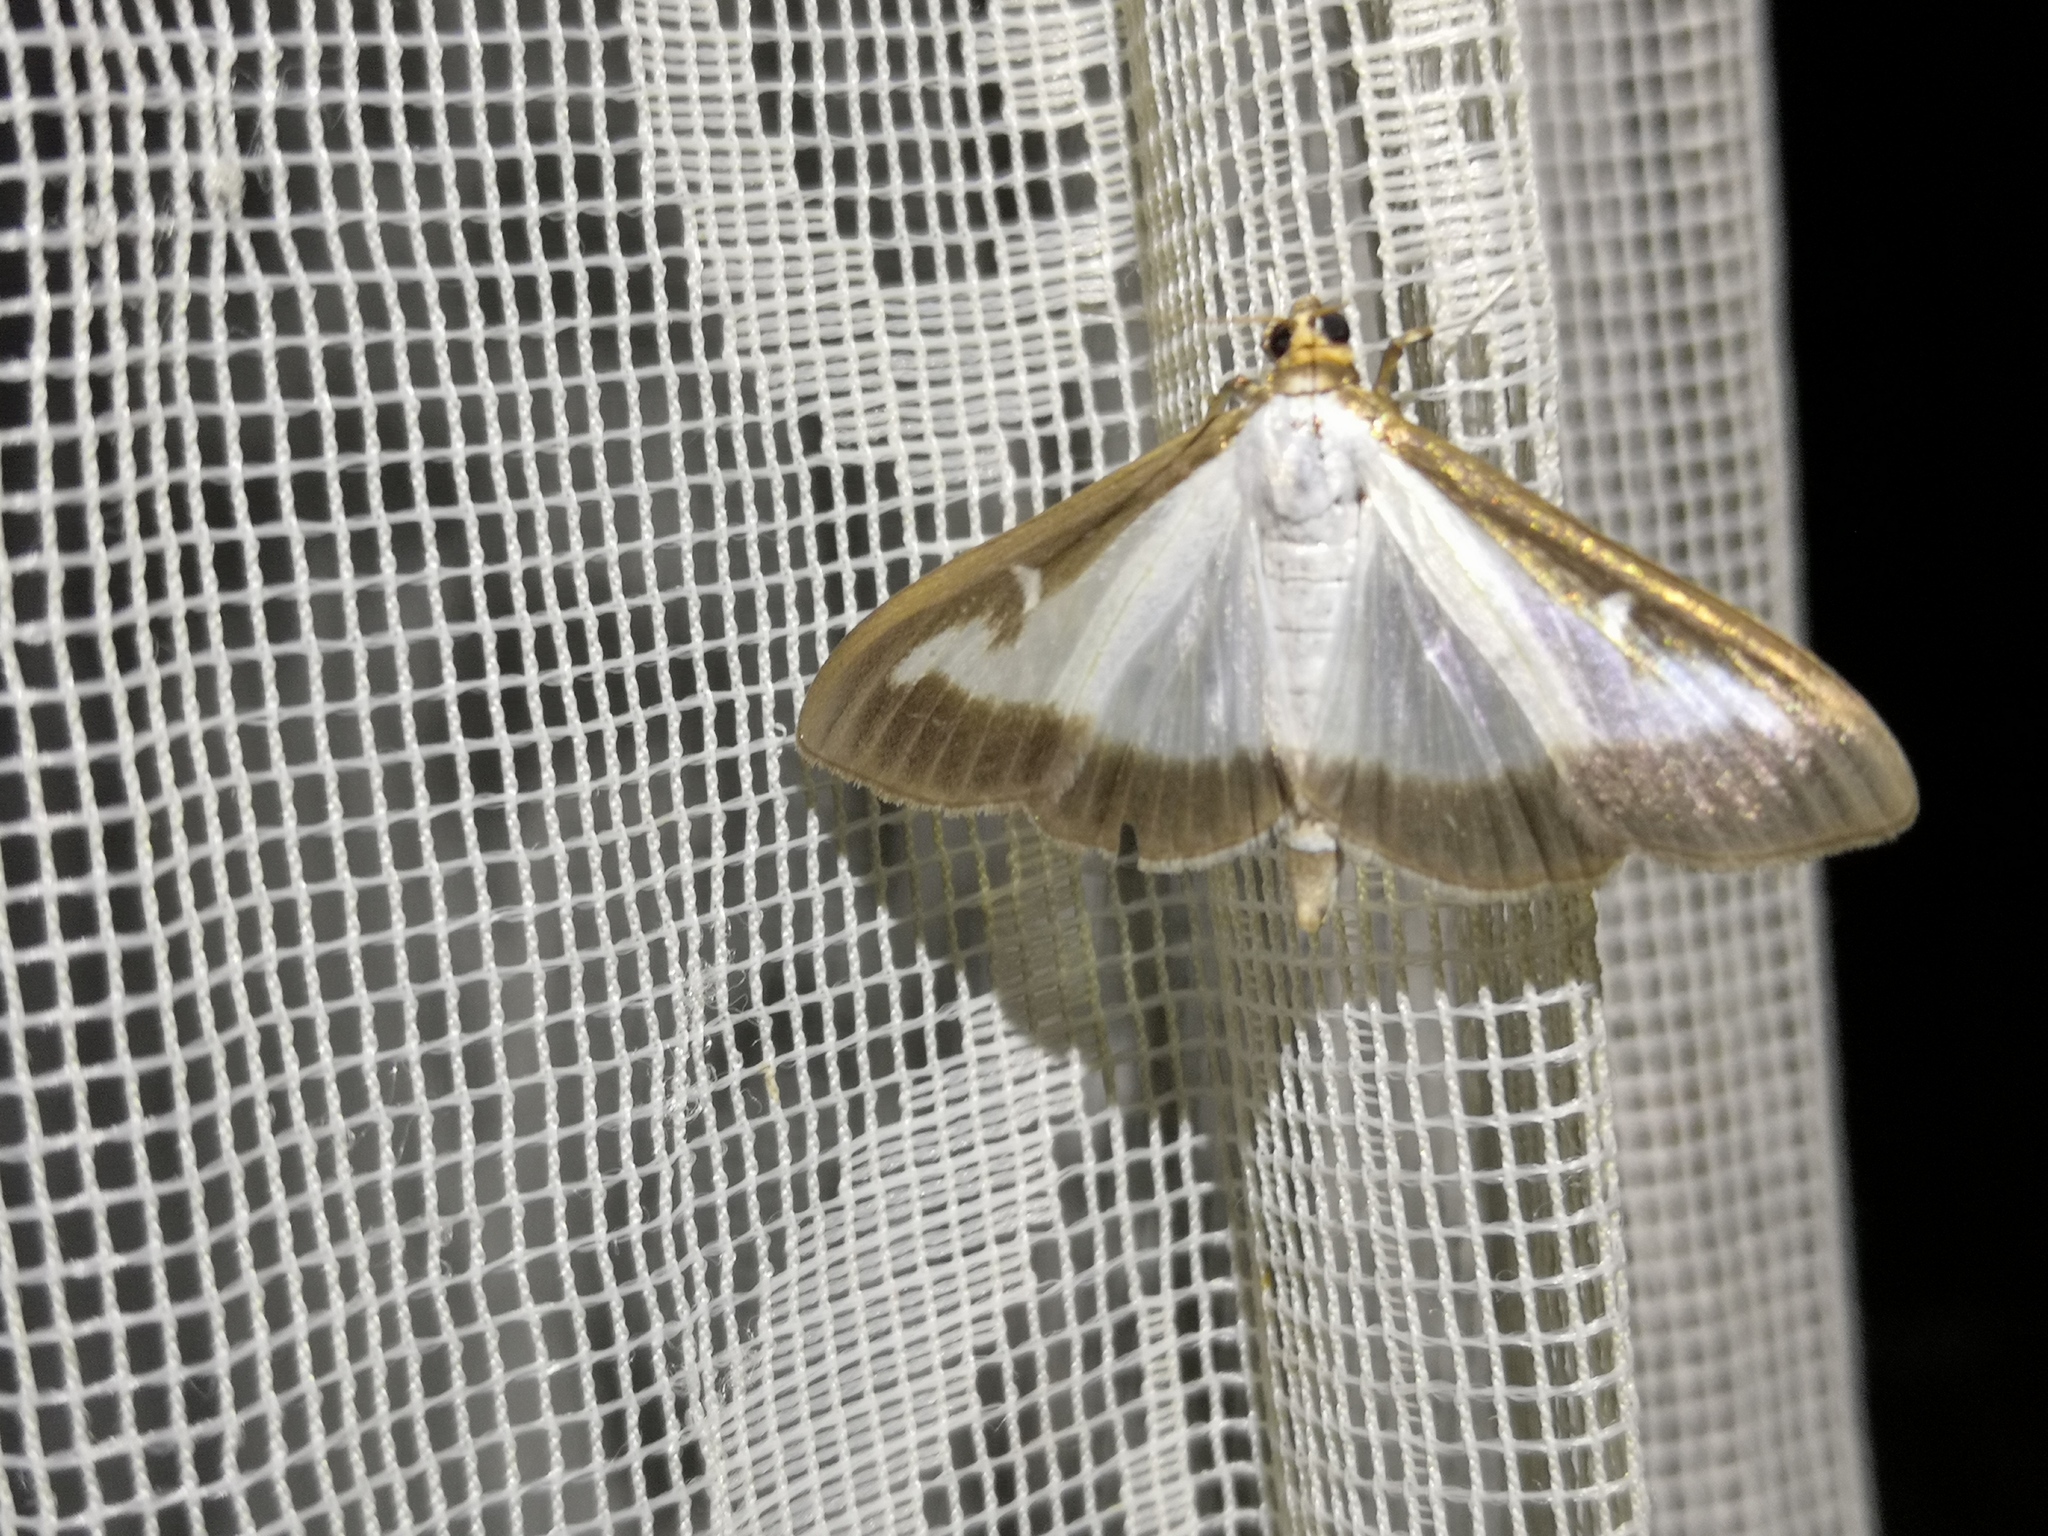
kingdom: Animalia
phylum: Arthropoda
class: Insecta
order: Lepidoptera
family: Crambidae
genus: Cydalima
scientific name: Cydalima perspectalis
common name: Box tree moth
